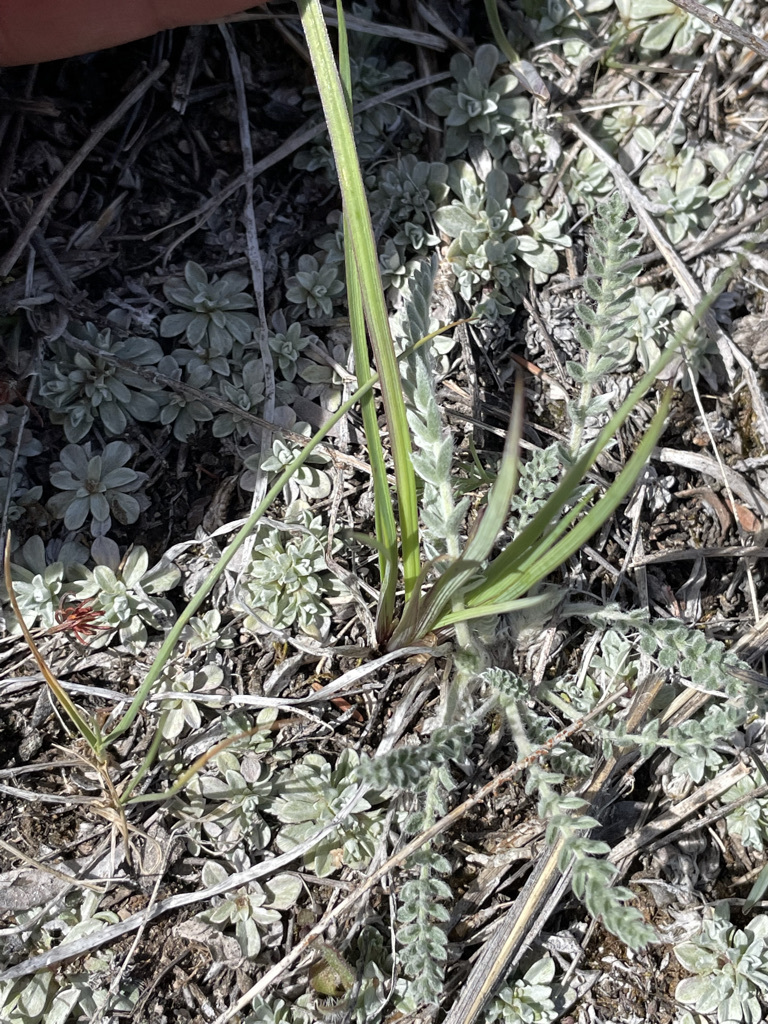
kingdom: Plantae
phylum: Tracheophyta
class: Liliopsida
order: Asparagales
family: Iridaceae
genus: Sisyrinchium
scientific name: Sisyrinchium montanum
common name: American blue-eyed-grass
